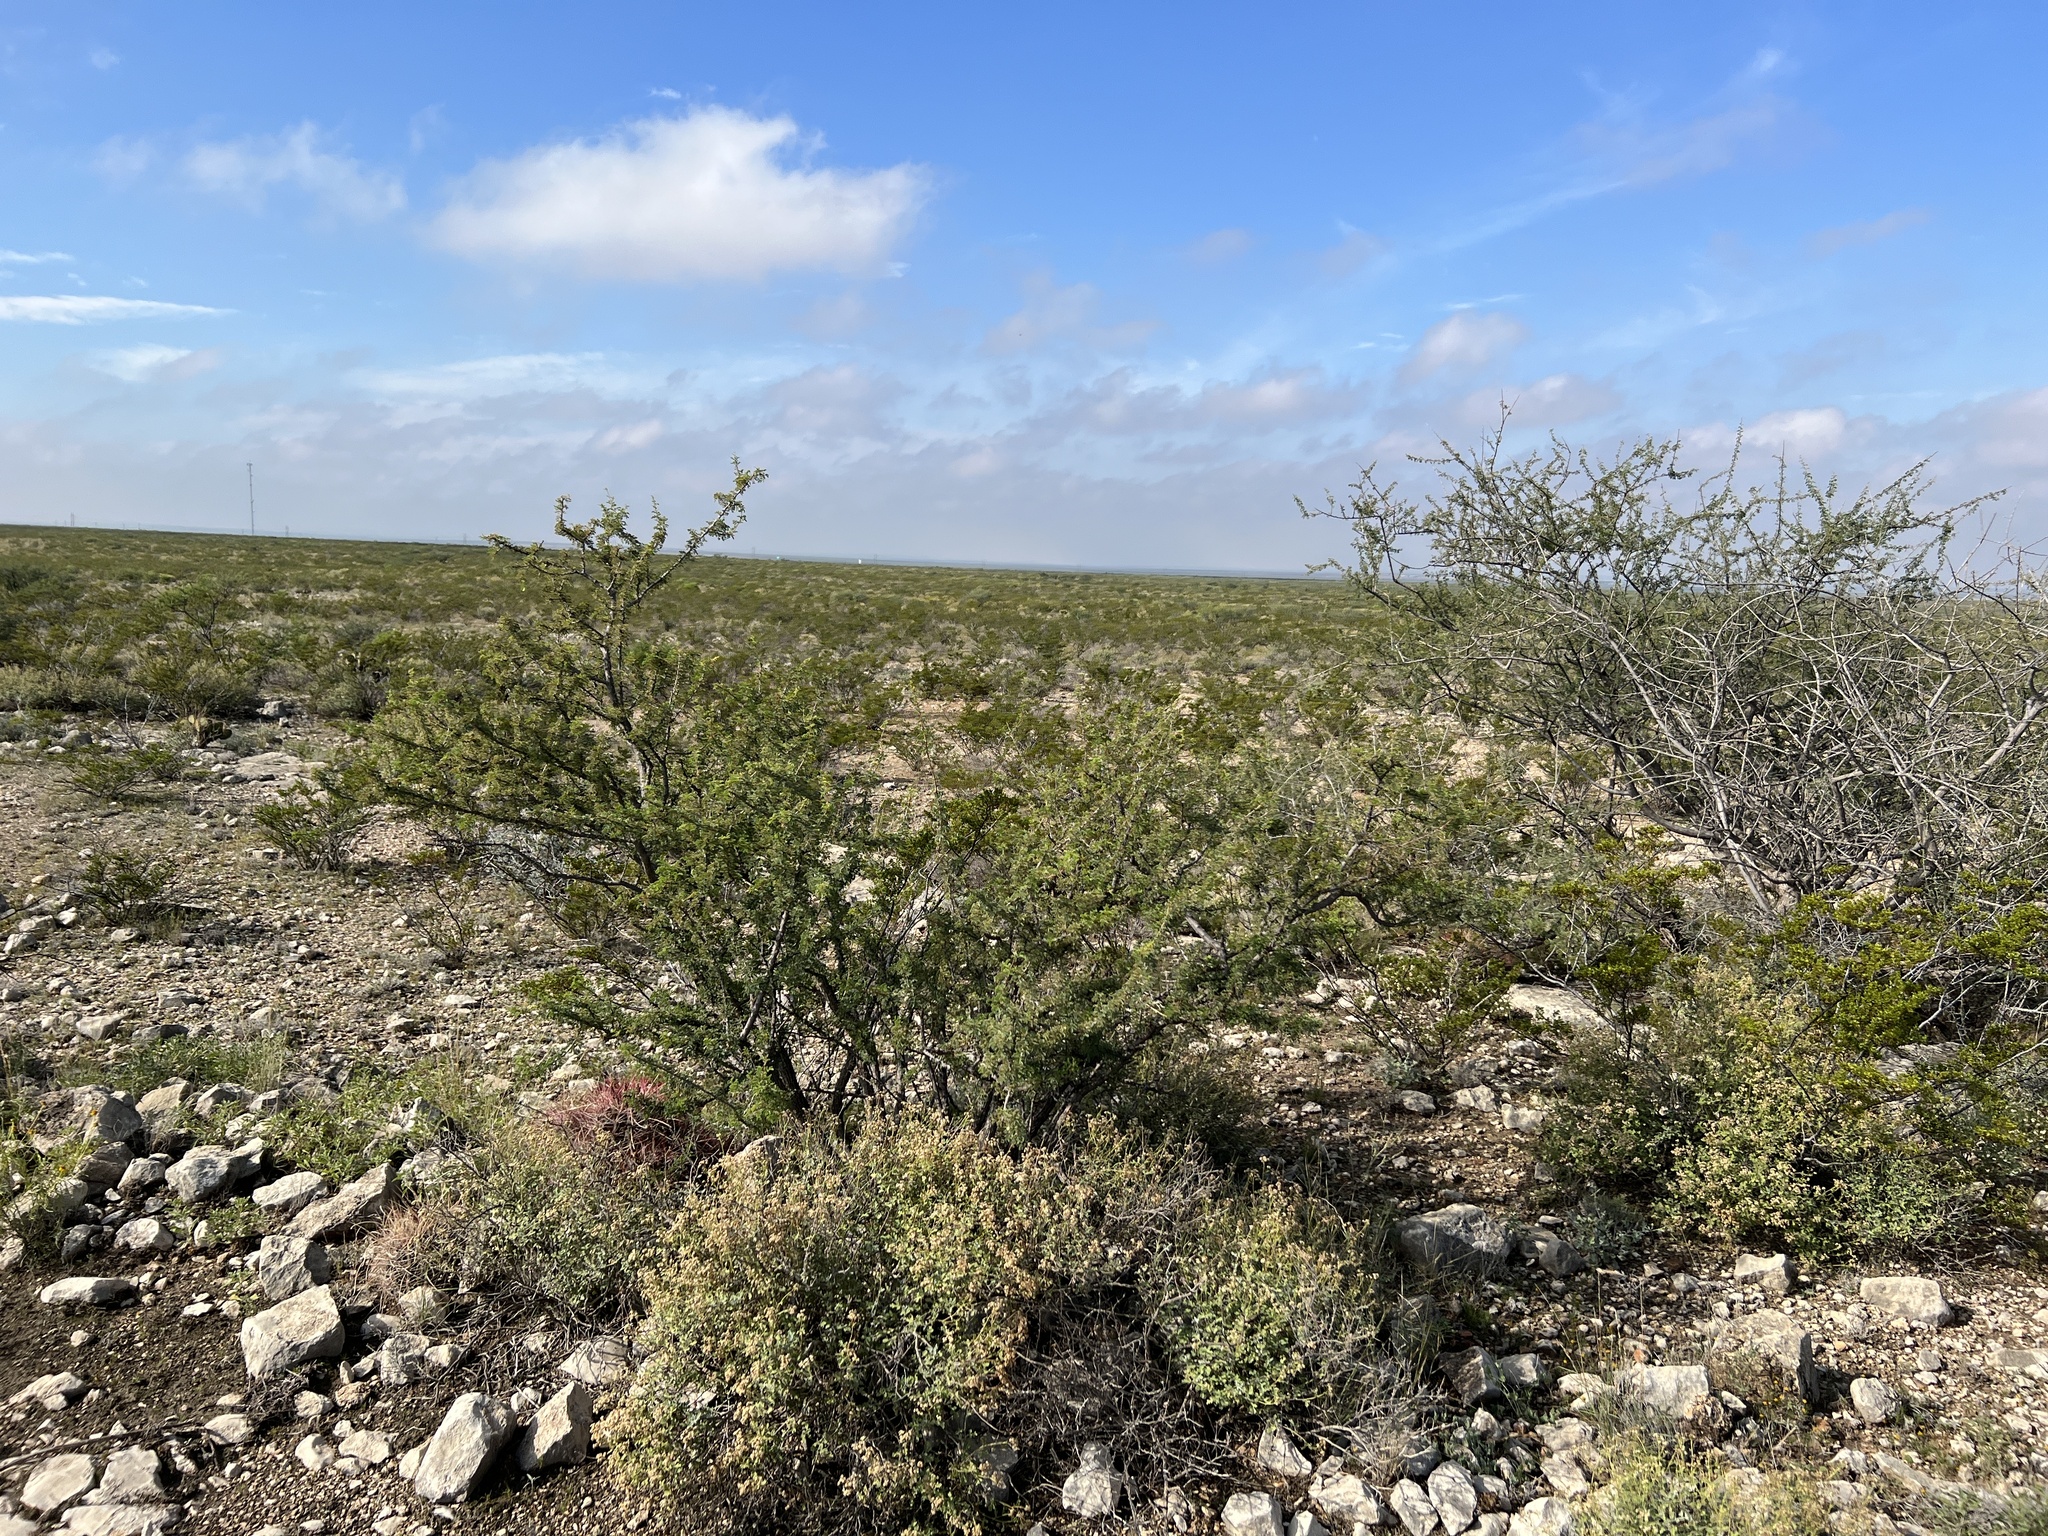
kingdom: Plantae
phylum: Tracheophyta
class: Magnoliopsida
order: Fabales
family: Fabaceae
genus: Senegalia
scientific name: Senegalia greggii
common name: Texas-mimosa
